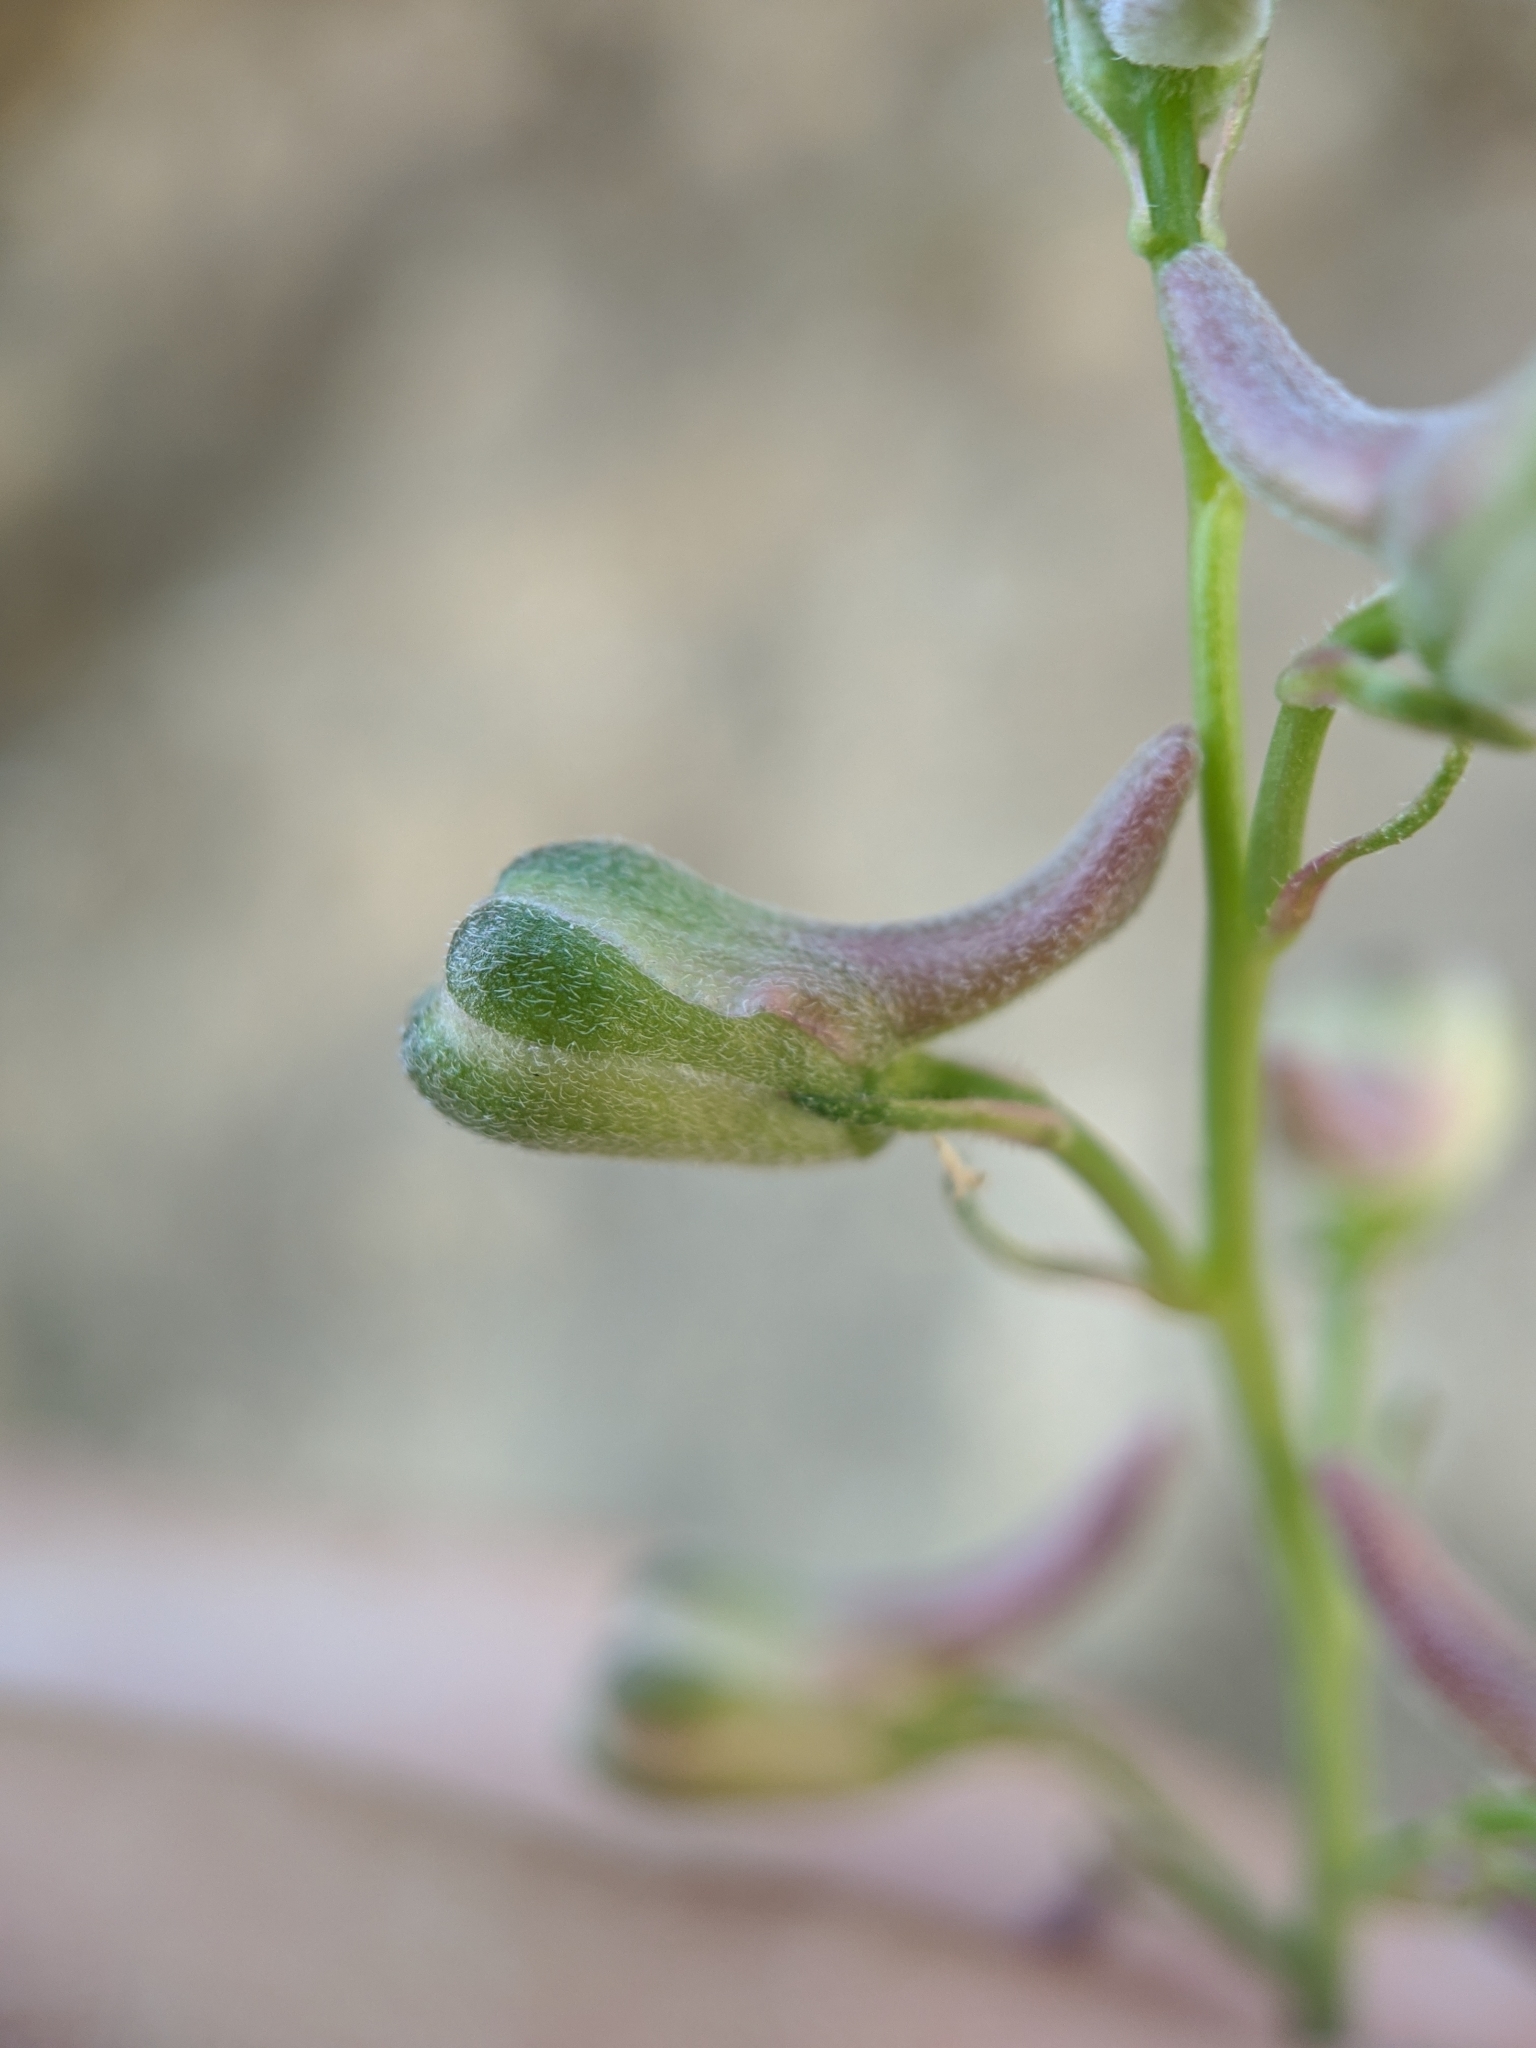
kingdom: Plantae
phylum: Tracheophyta
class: Magnoliopsida
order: Ranunculales
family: Ranunculaceae
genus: Delphinium
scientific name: Delphinium gypsophilum
